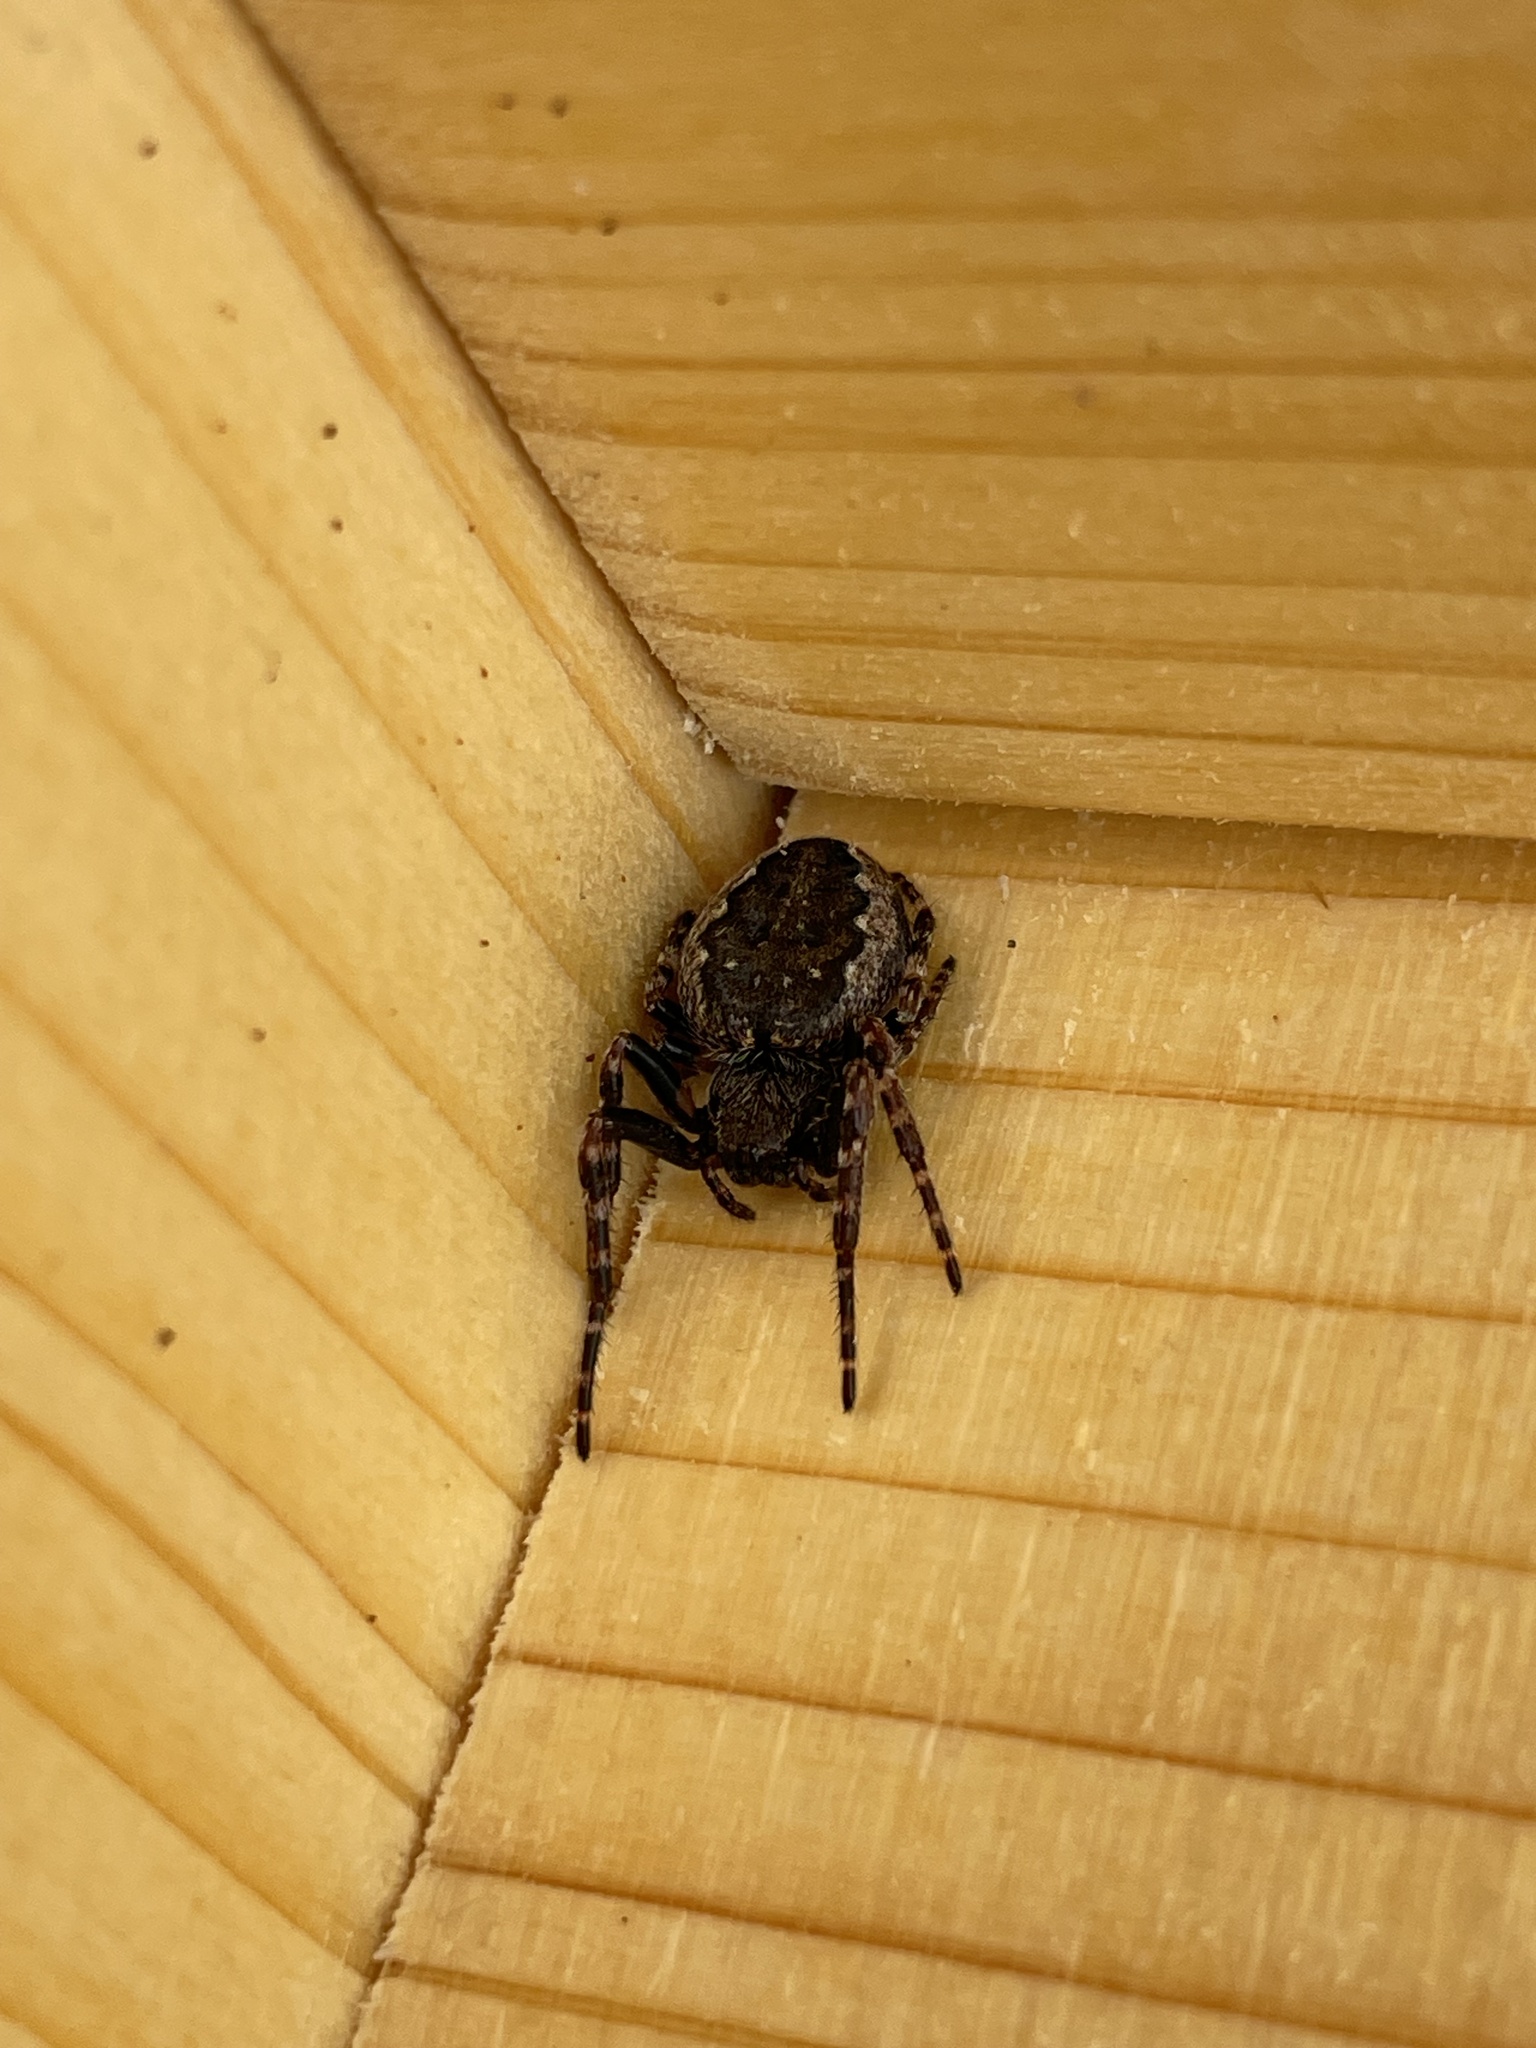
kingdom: Animalia
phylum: Arthropoda
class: Arachnida
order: Araneae
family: Araneidae
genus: Nuctenea
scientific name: Nuctenea umbratica
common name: Toad spider
